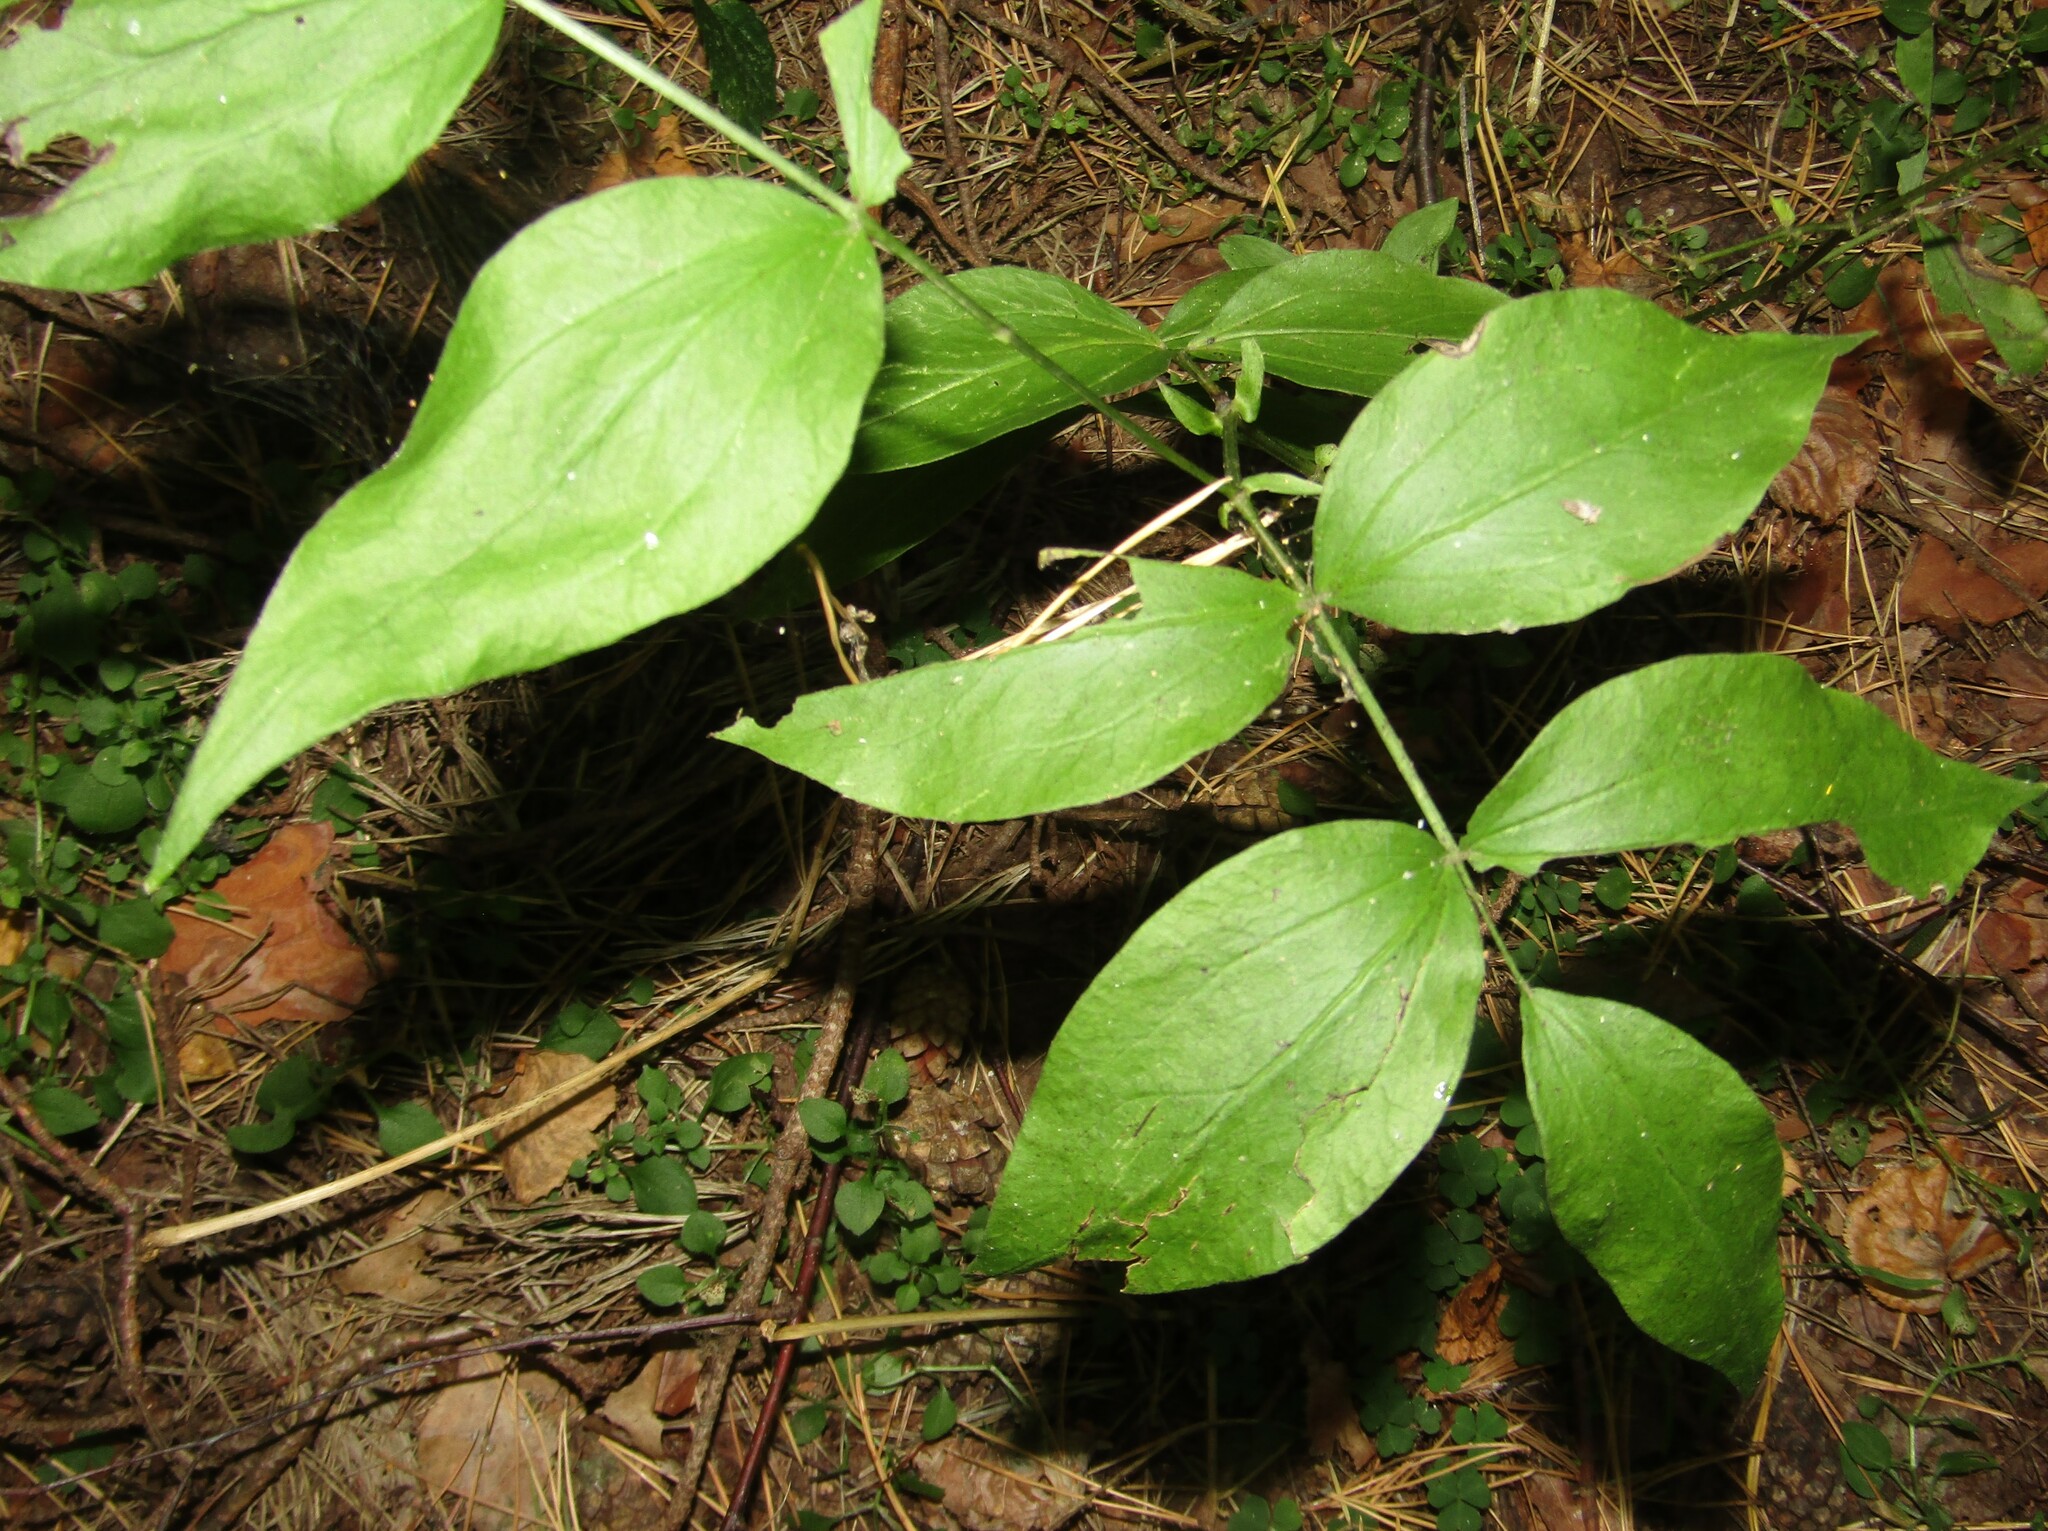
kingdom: Plantae
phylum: Tracheophyta
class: Magnoliopsida
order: Fabales
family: Fabaceae
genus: Lathyrus
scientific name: Lathyrus vernus
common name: Spring pea
